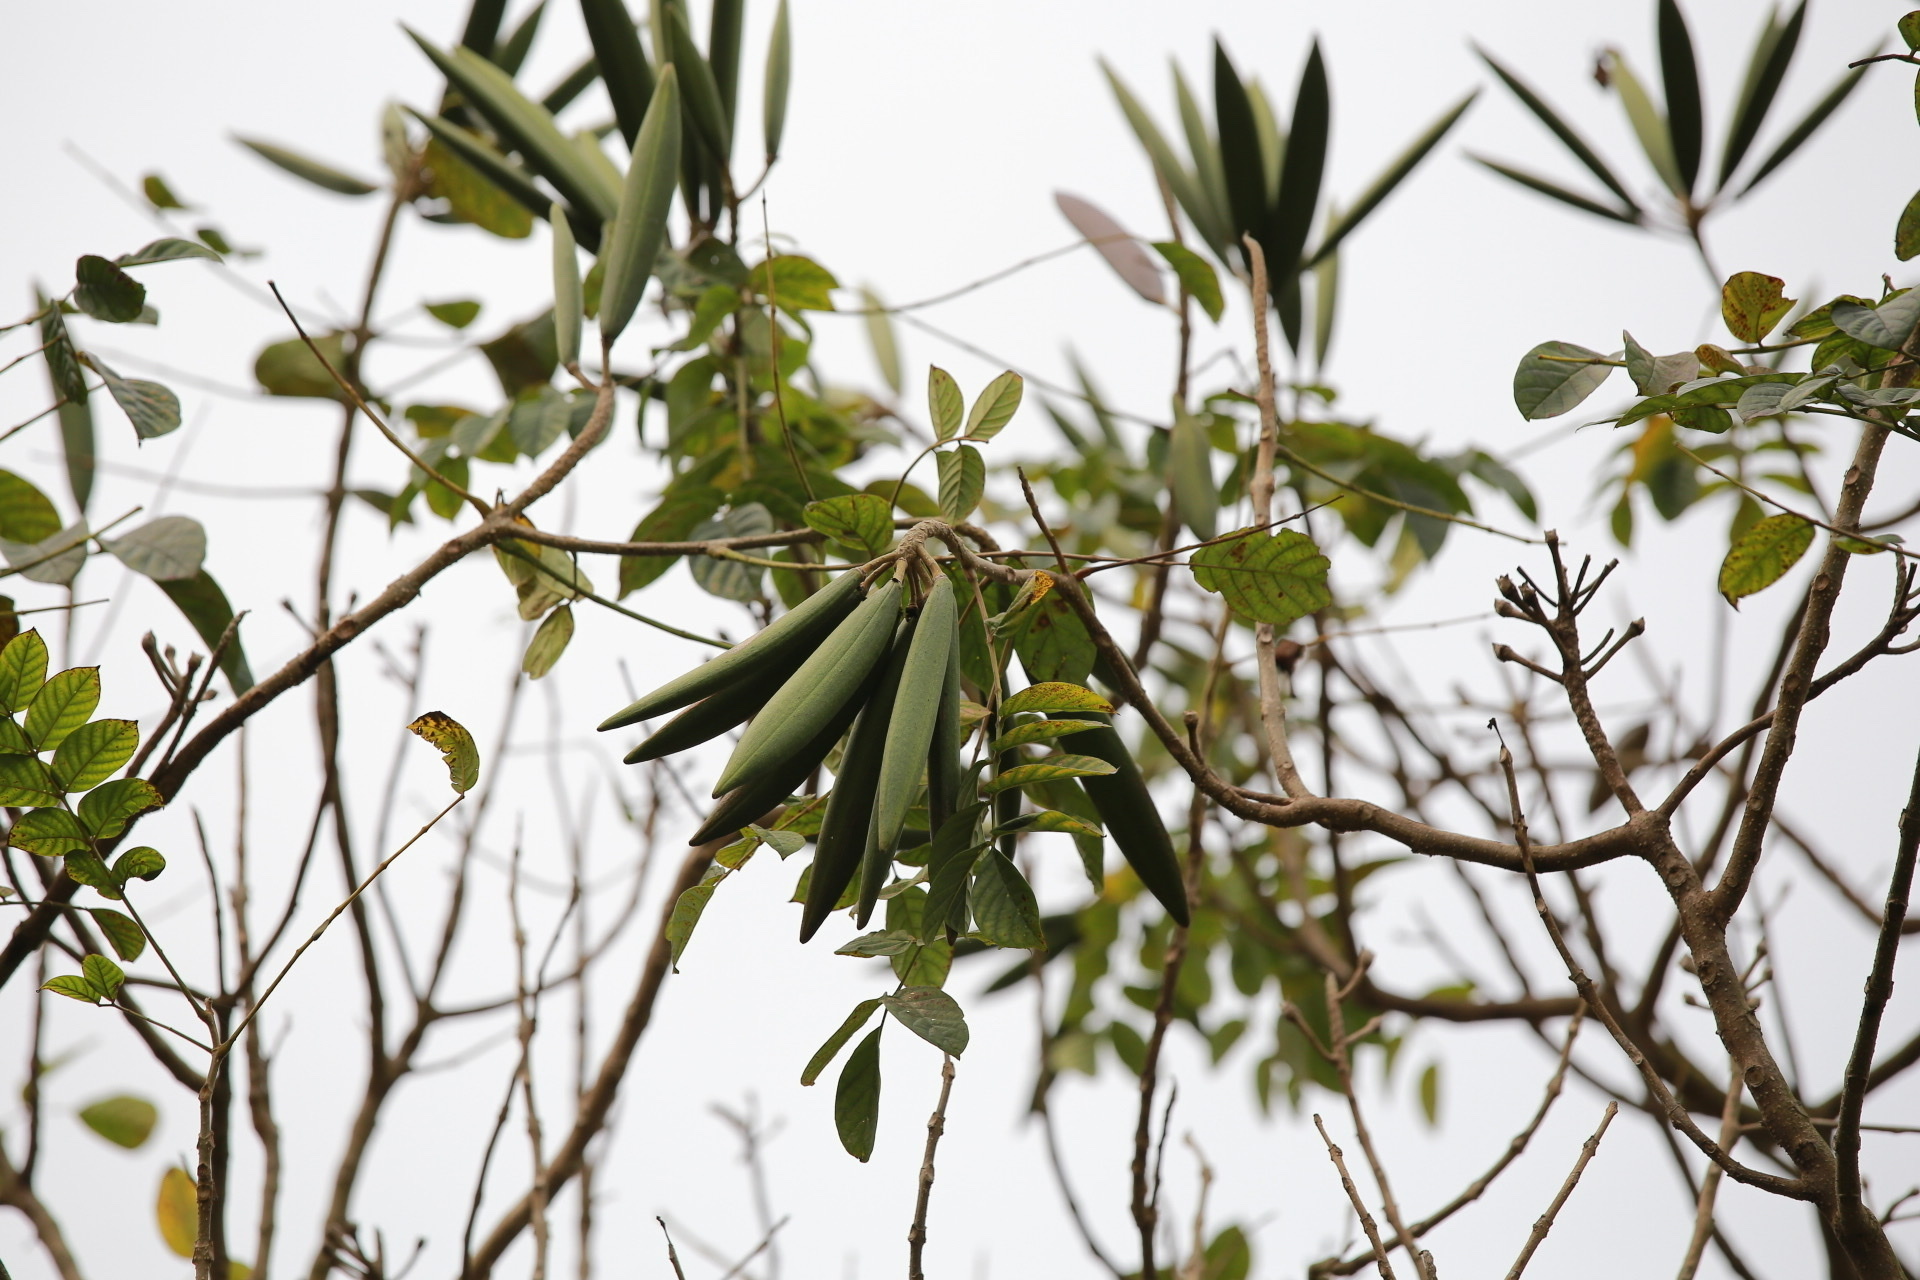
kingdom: Plantae
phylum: Tracheophyta
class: Magnoliopsida
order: Lamiales
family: Bignoniaceae
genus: Spathodea
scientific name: Spathodea campanulata
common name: African tuliptree
